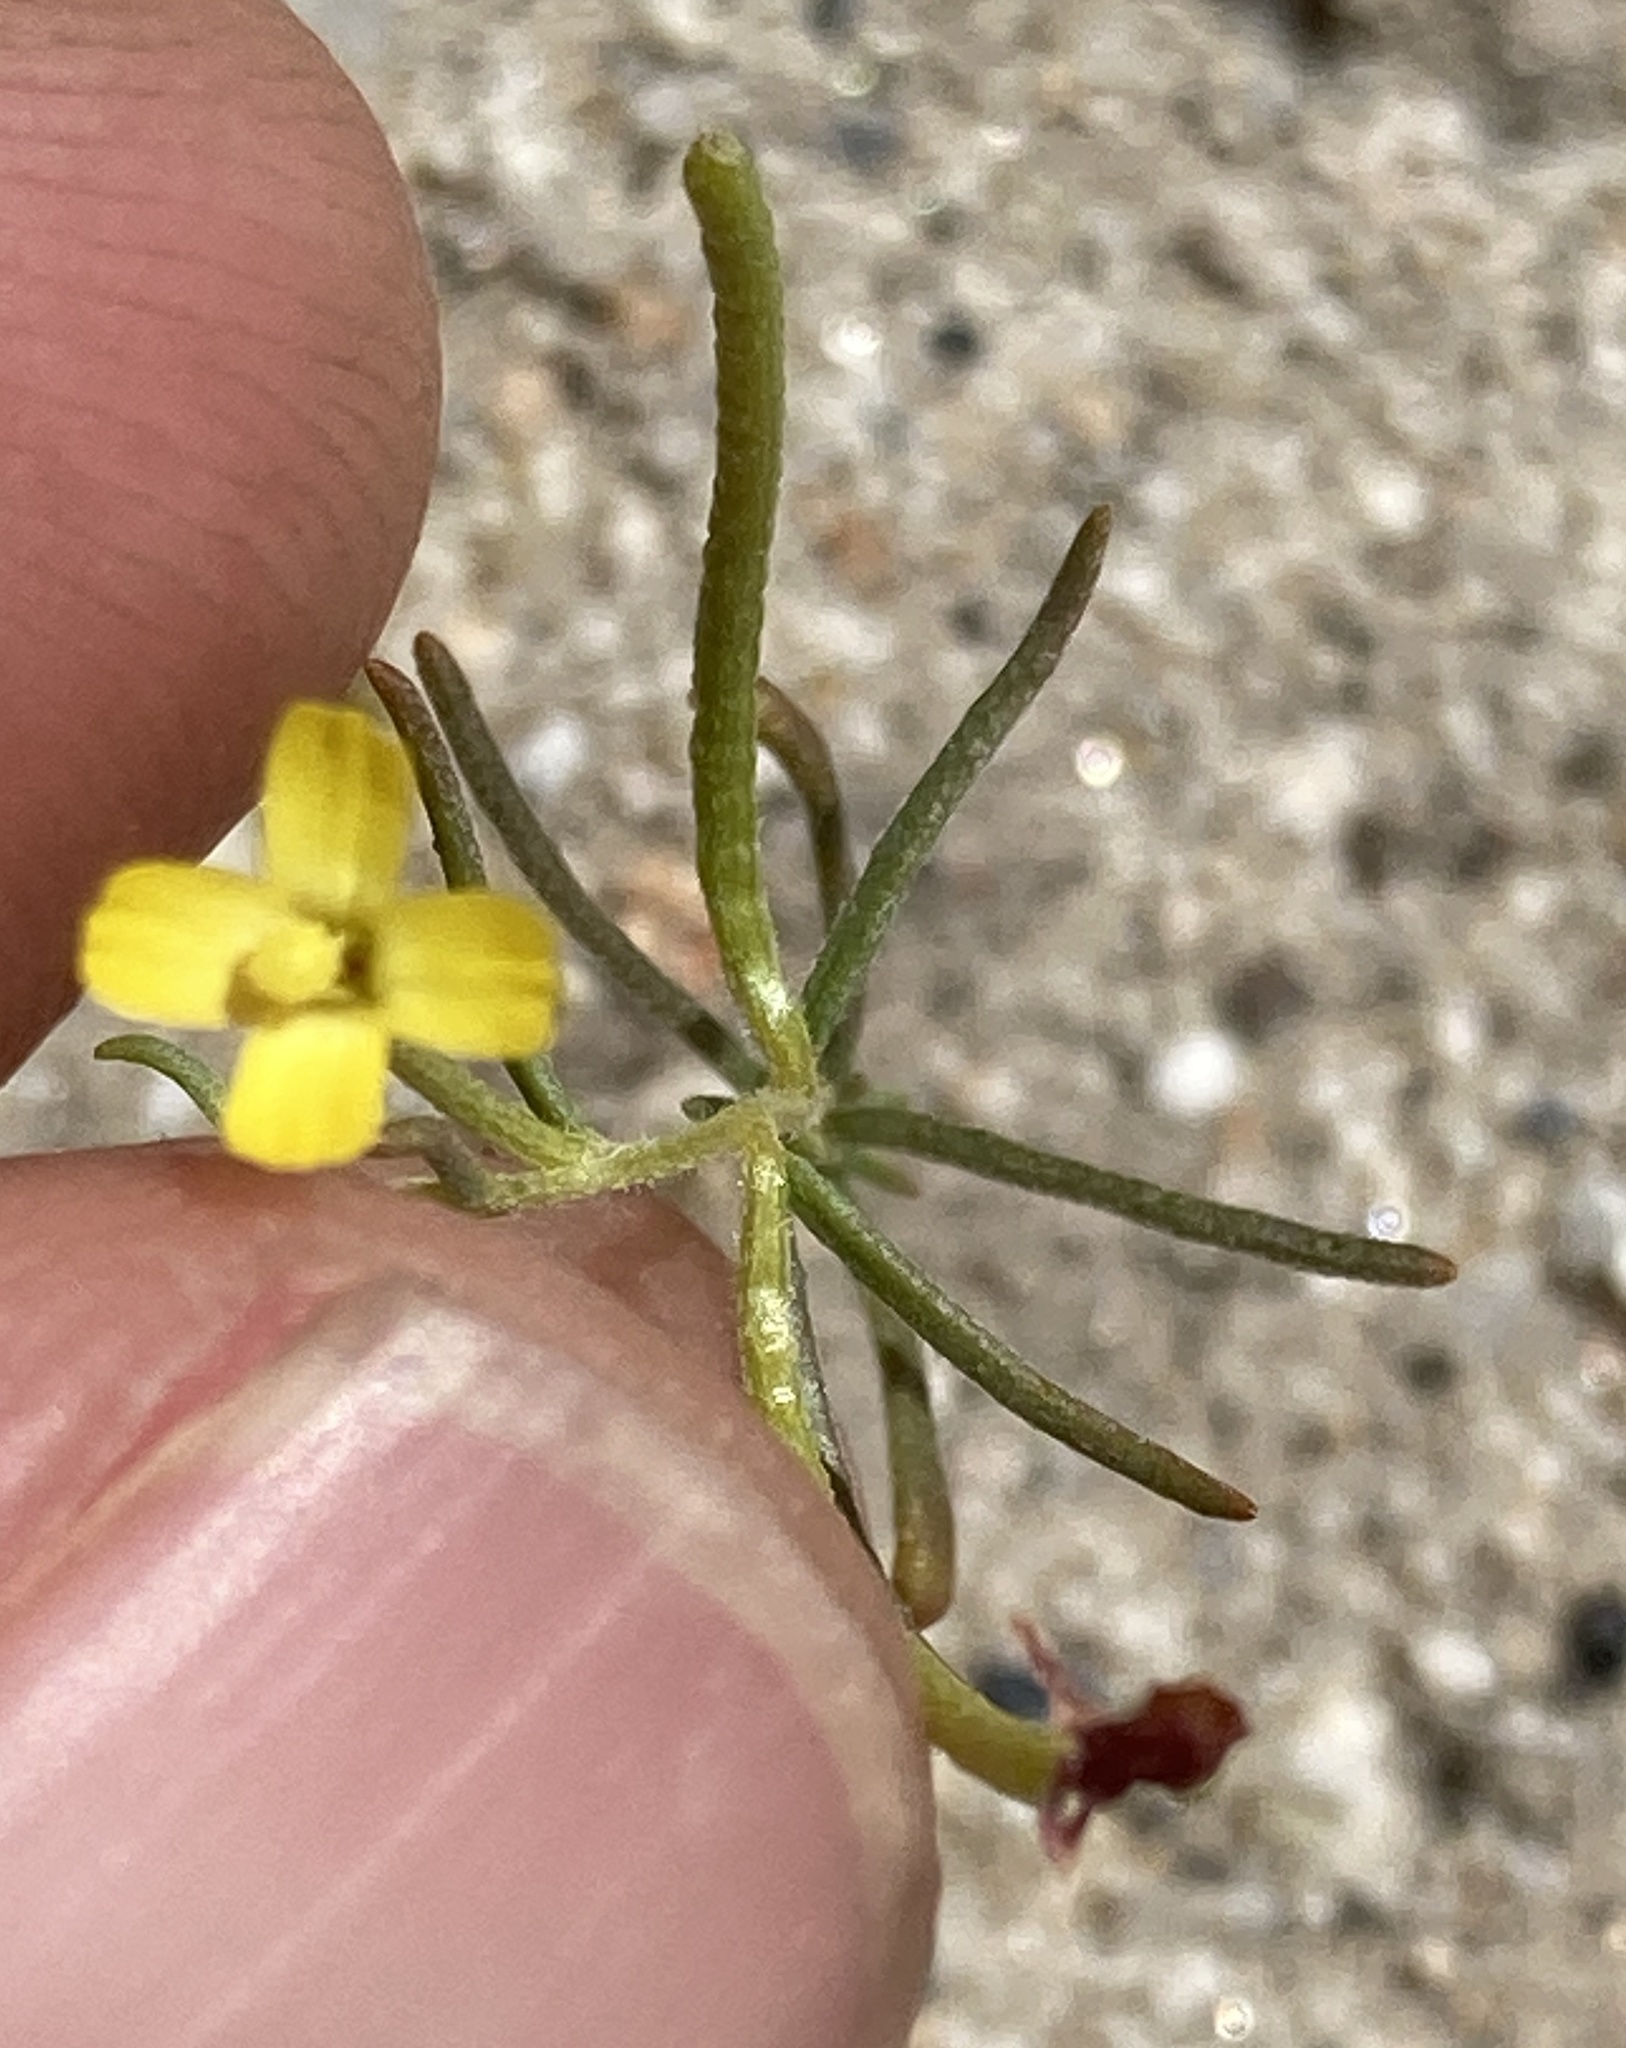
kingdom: Plantae
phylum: Tracheophyta
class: Magnoliopsida
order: Myrtales
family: Onagraceae
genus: Camissonia
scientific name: Camissonia parvula
